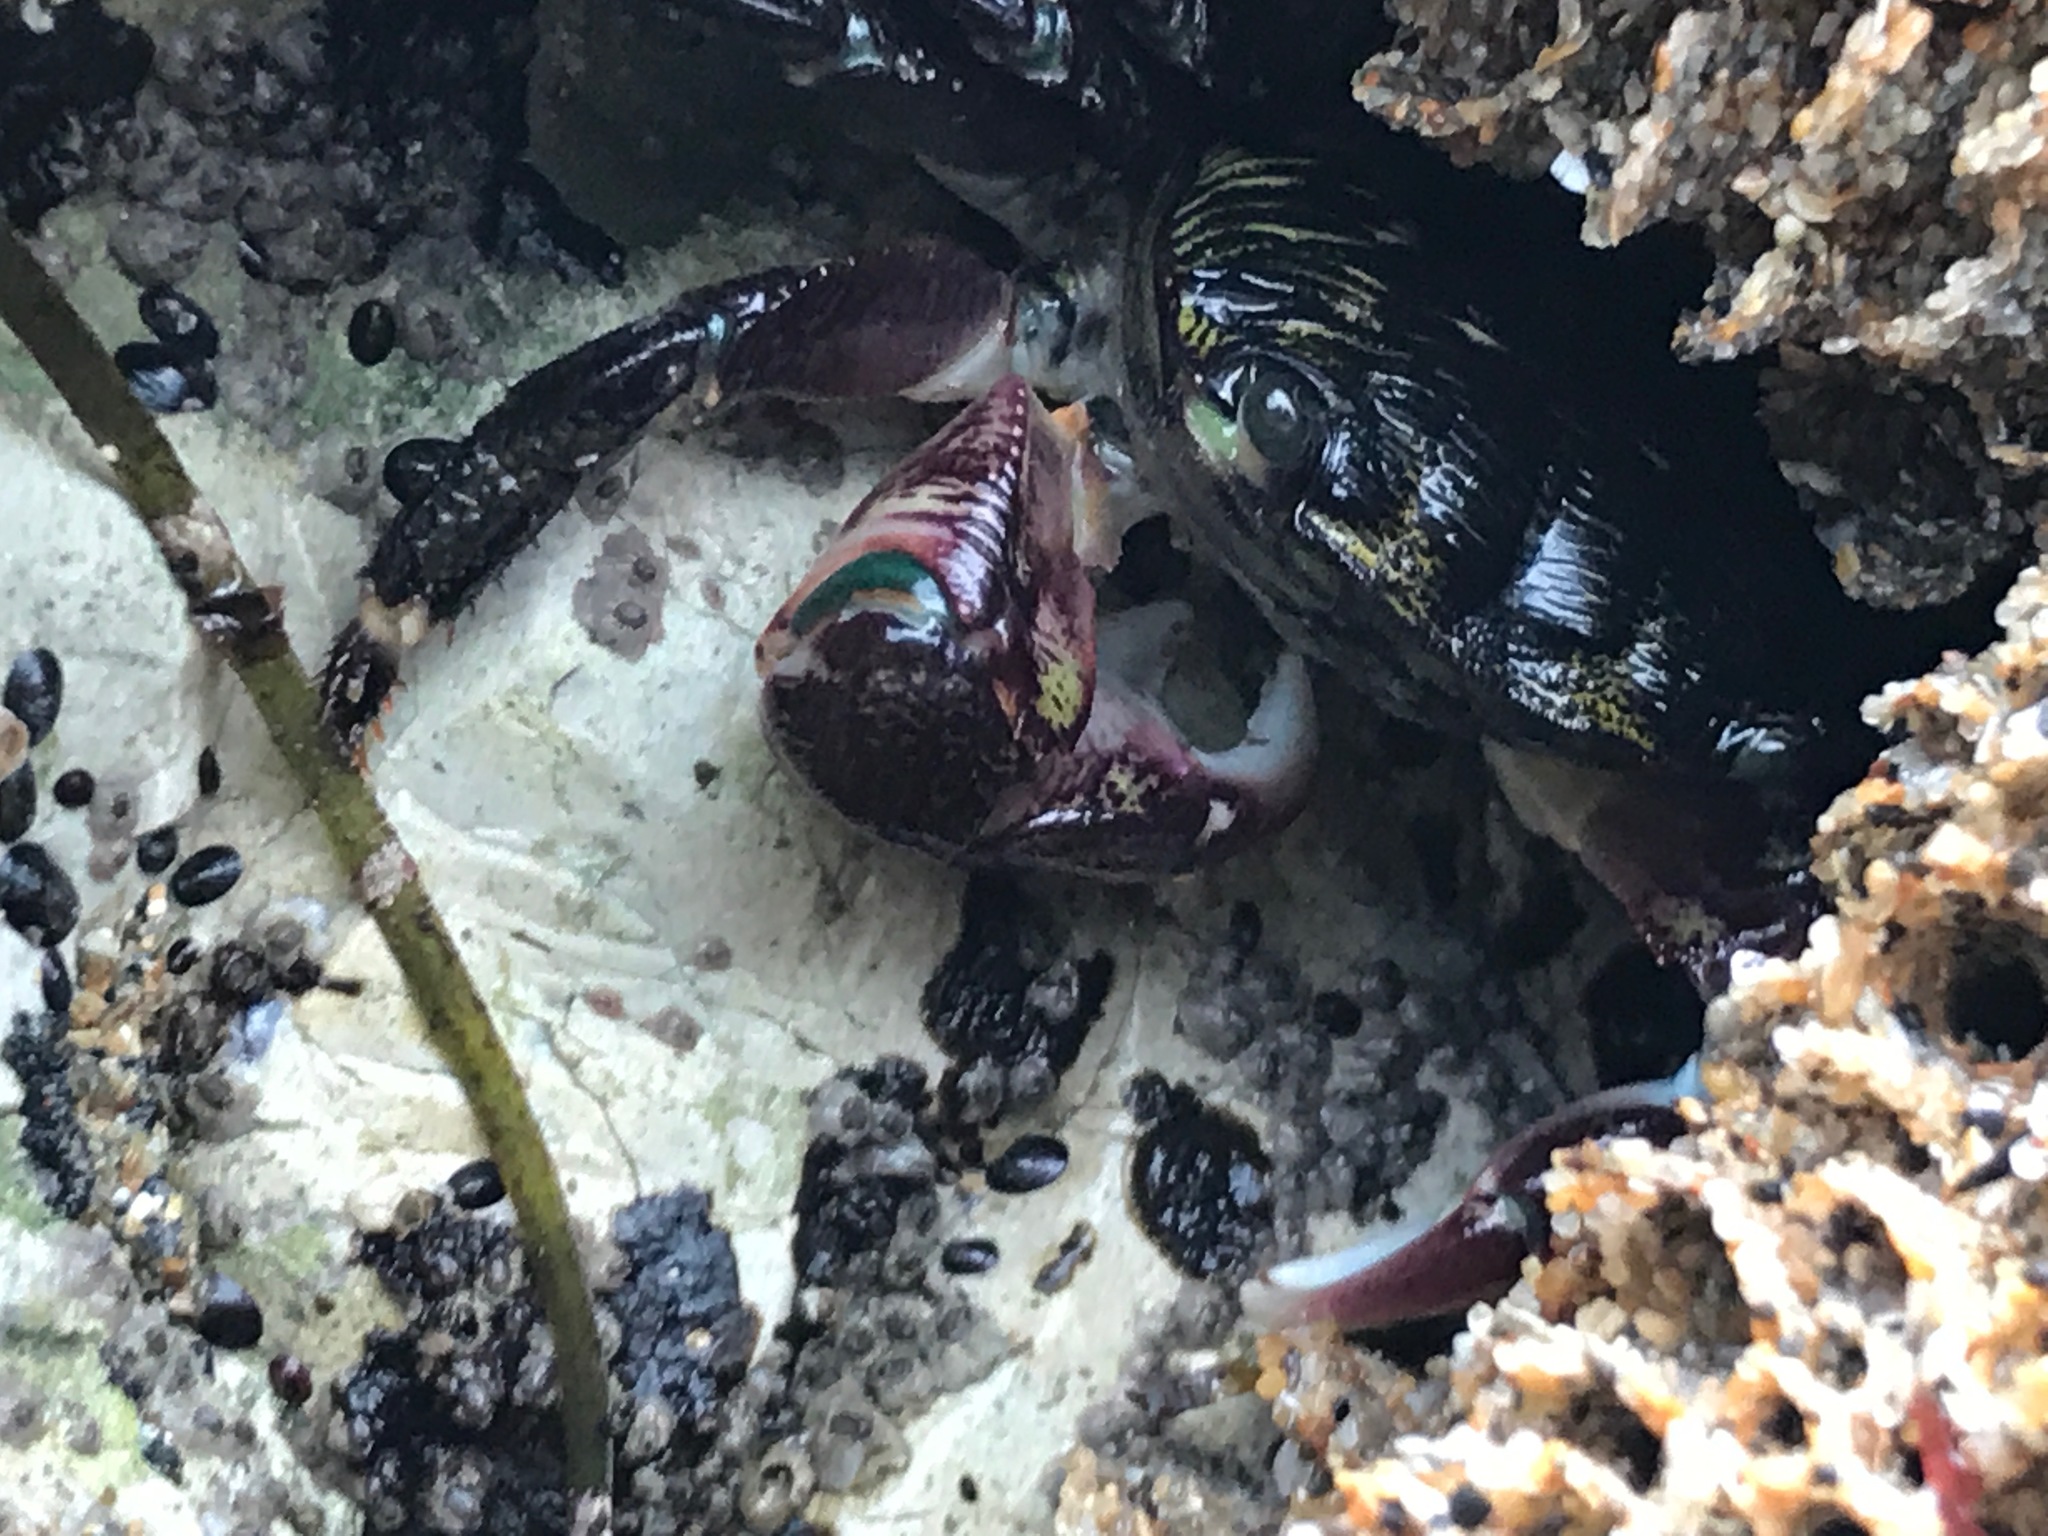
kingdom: Animalia
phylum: Arthropoda
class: Malacostraca
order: Decapoda
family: Grapsidae
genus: Pachygrapsus
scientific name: Pachygrapsus crassipes
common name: Striped shore crab
